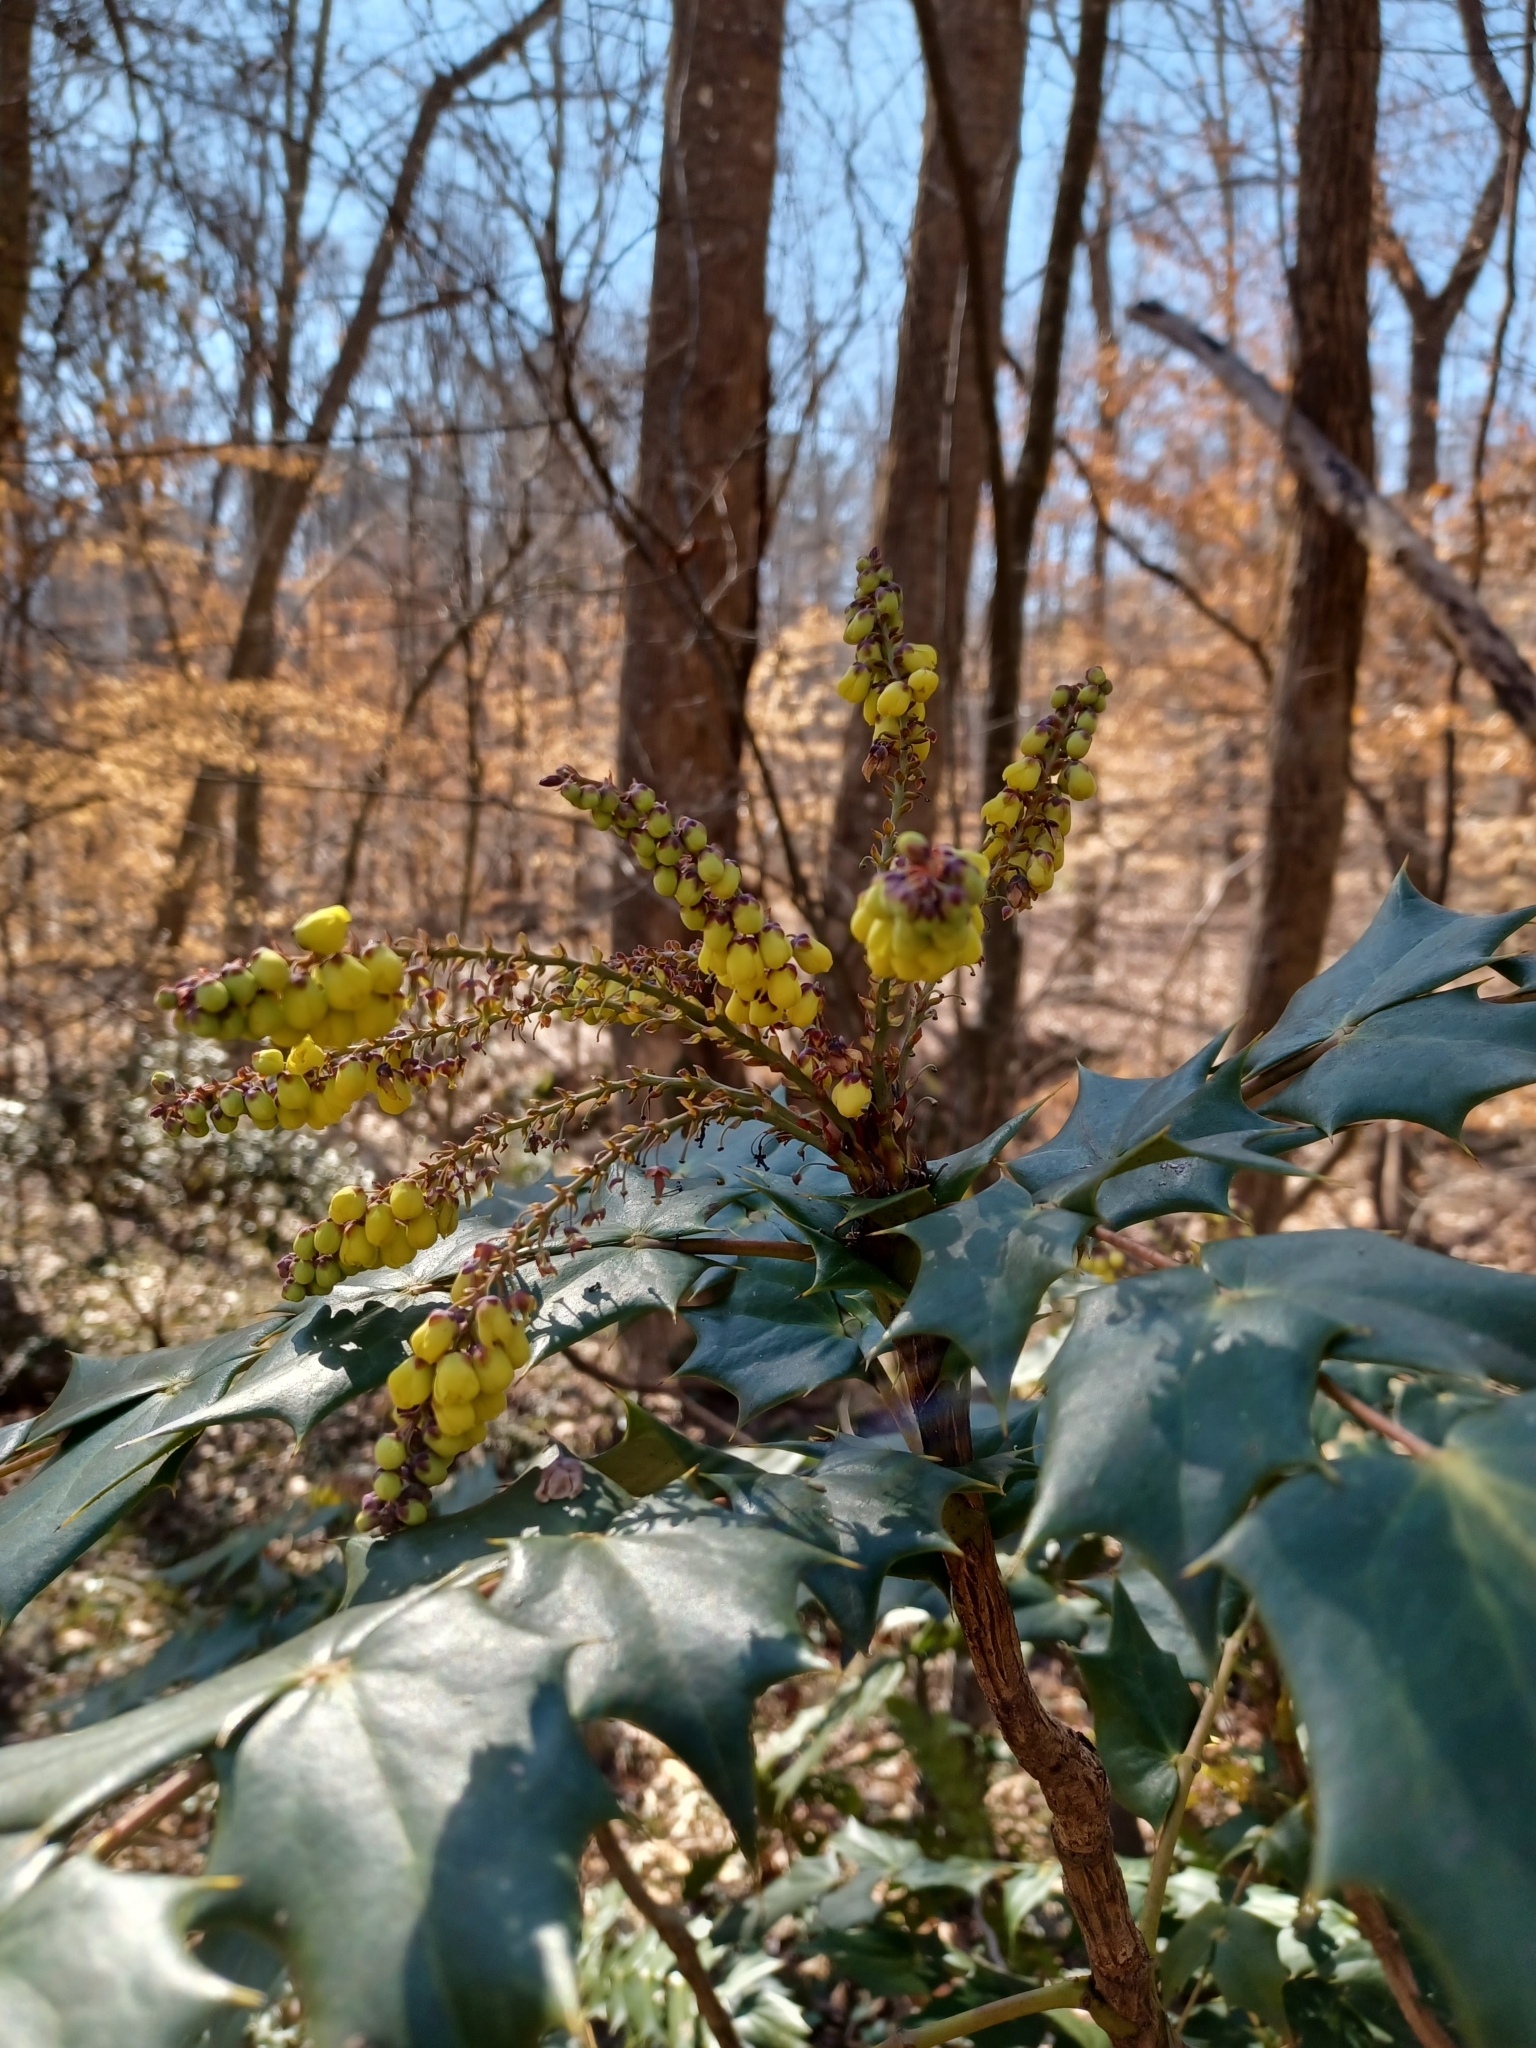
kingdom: Plantae
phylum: Tracheophyta
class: Magnoliopsida
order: Ranunculales
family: Berberidaceae
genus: Mahonia
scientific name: Mahonia bealei
